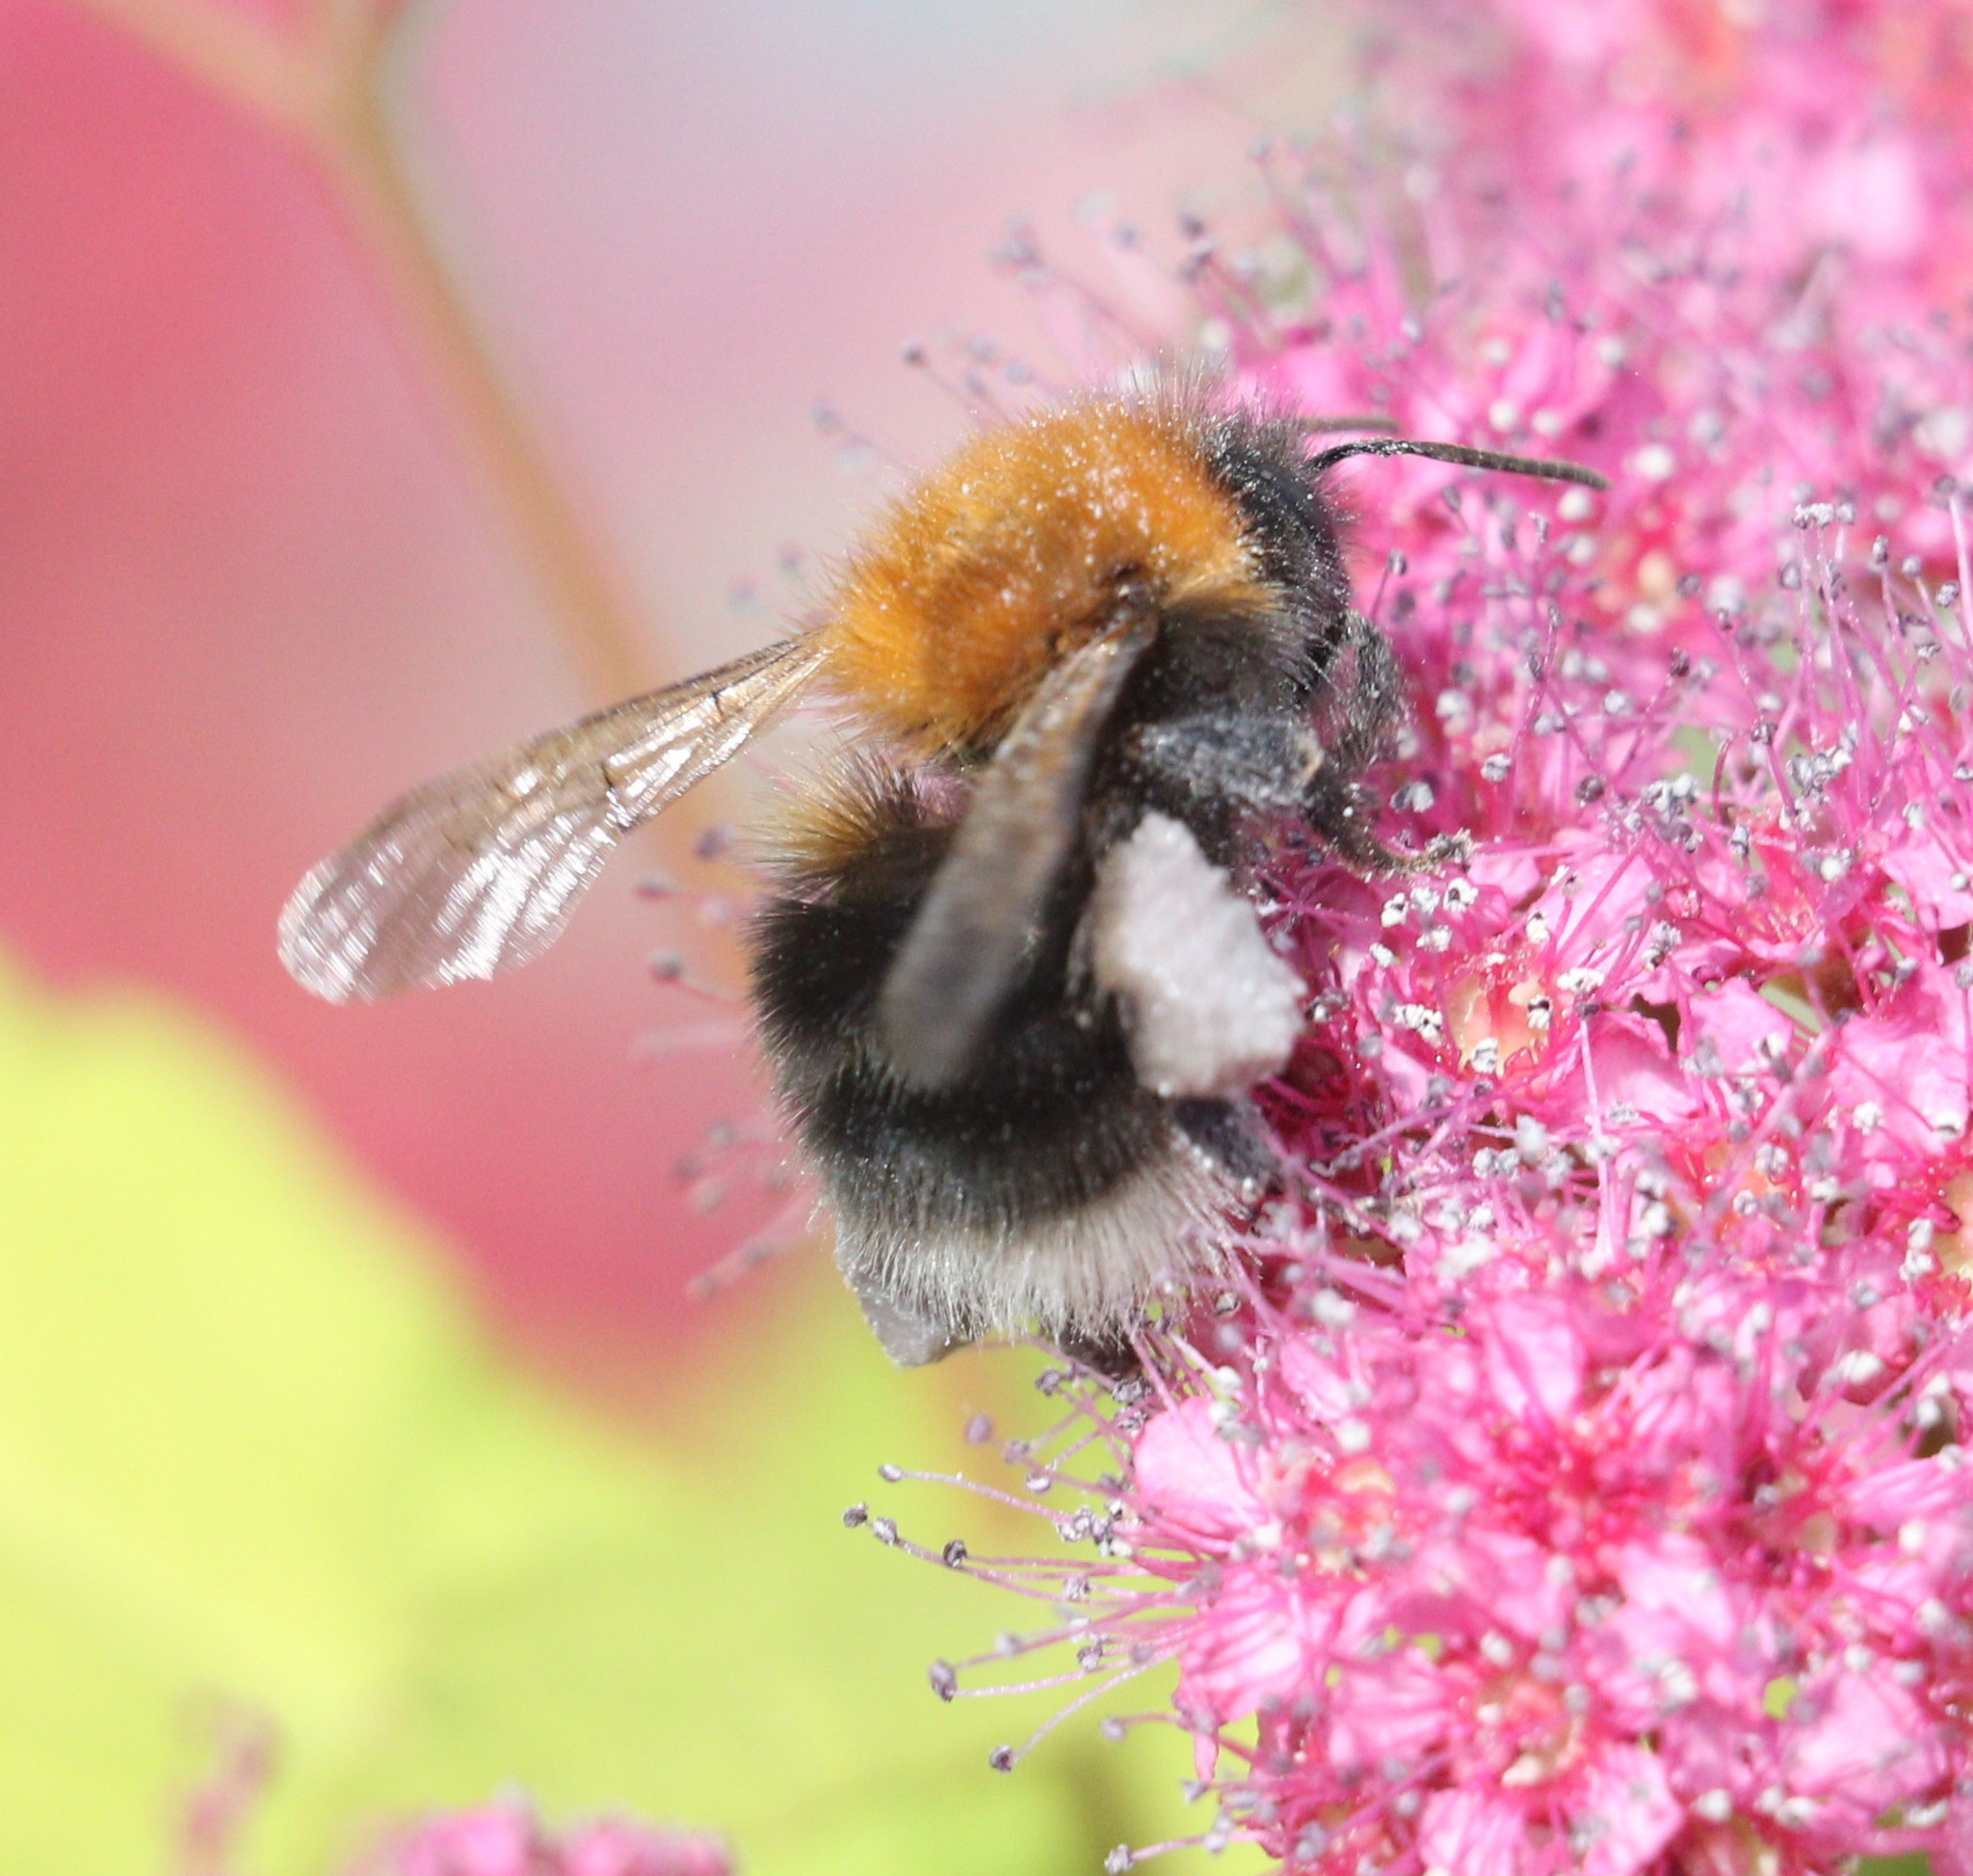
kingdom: Animalia
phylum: Arthropoda
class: Insecta
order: Hymenoptera
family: Apidae
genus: Bombus
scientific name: Bombus hypnorum
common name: New garden bumblebee
